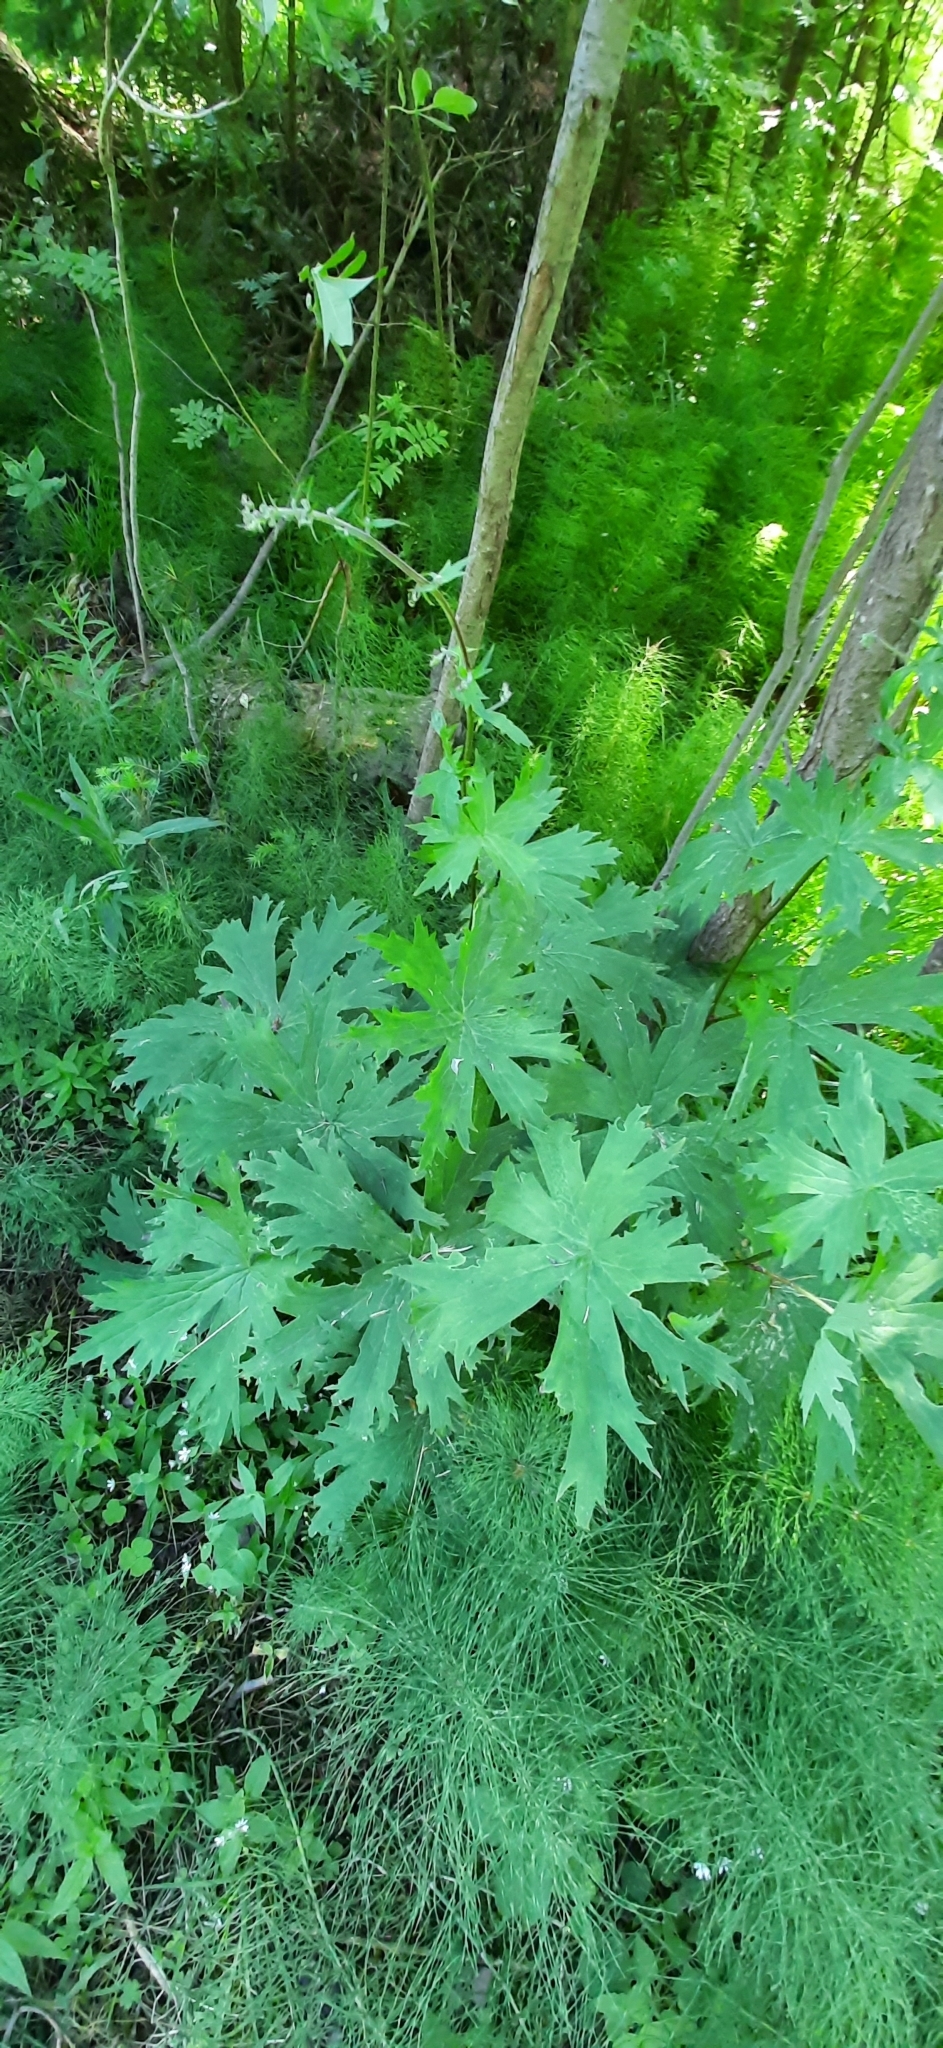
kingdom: Plantae
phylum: Tracheophyta
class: Magnoliopsida
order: Ranunculales
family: Ranunculaceae
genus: Aconitum
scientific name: Aconitum septentrionale
